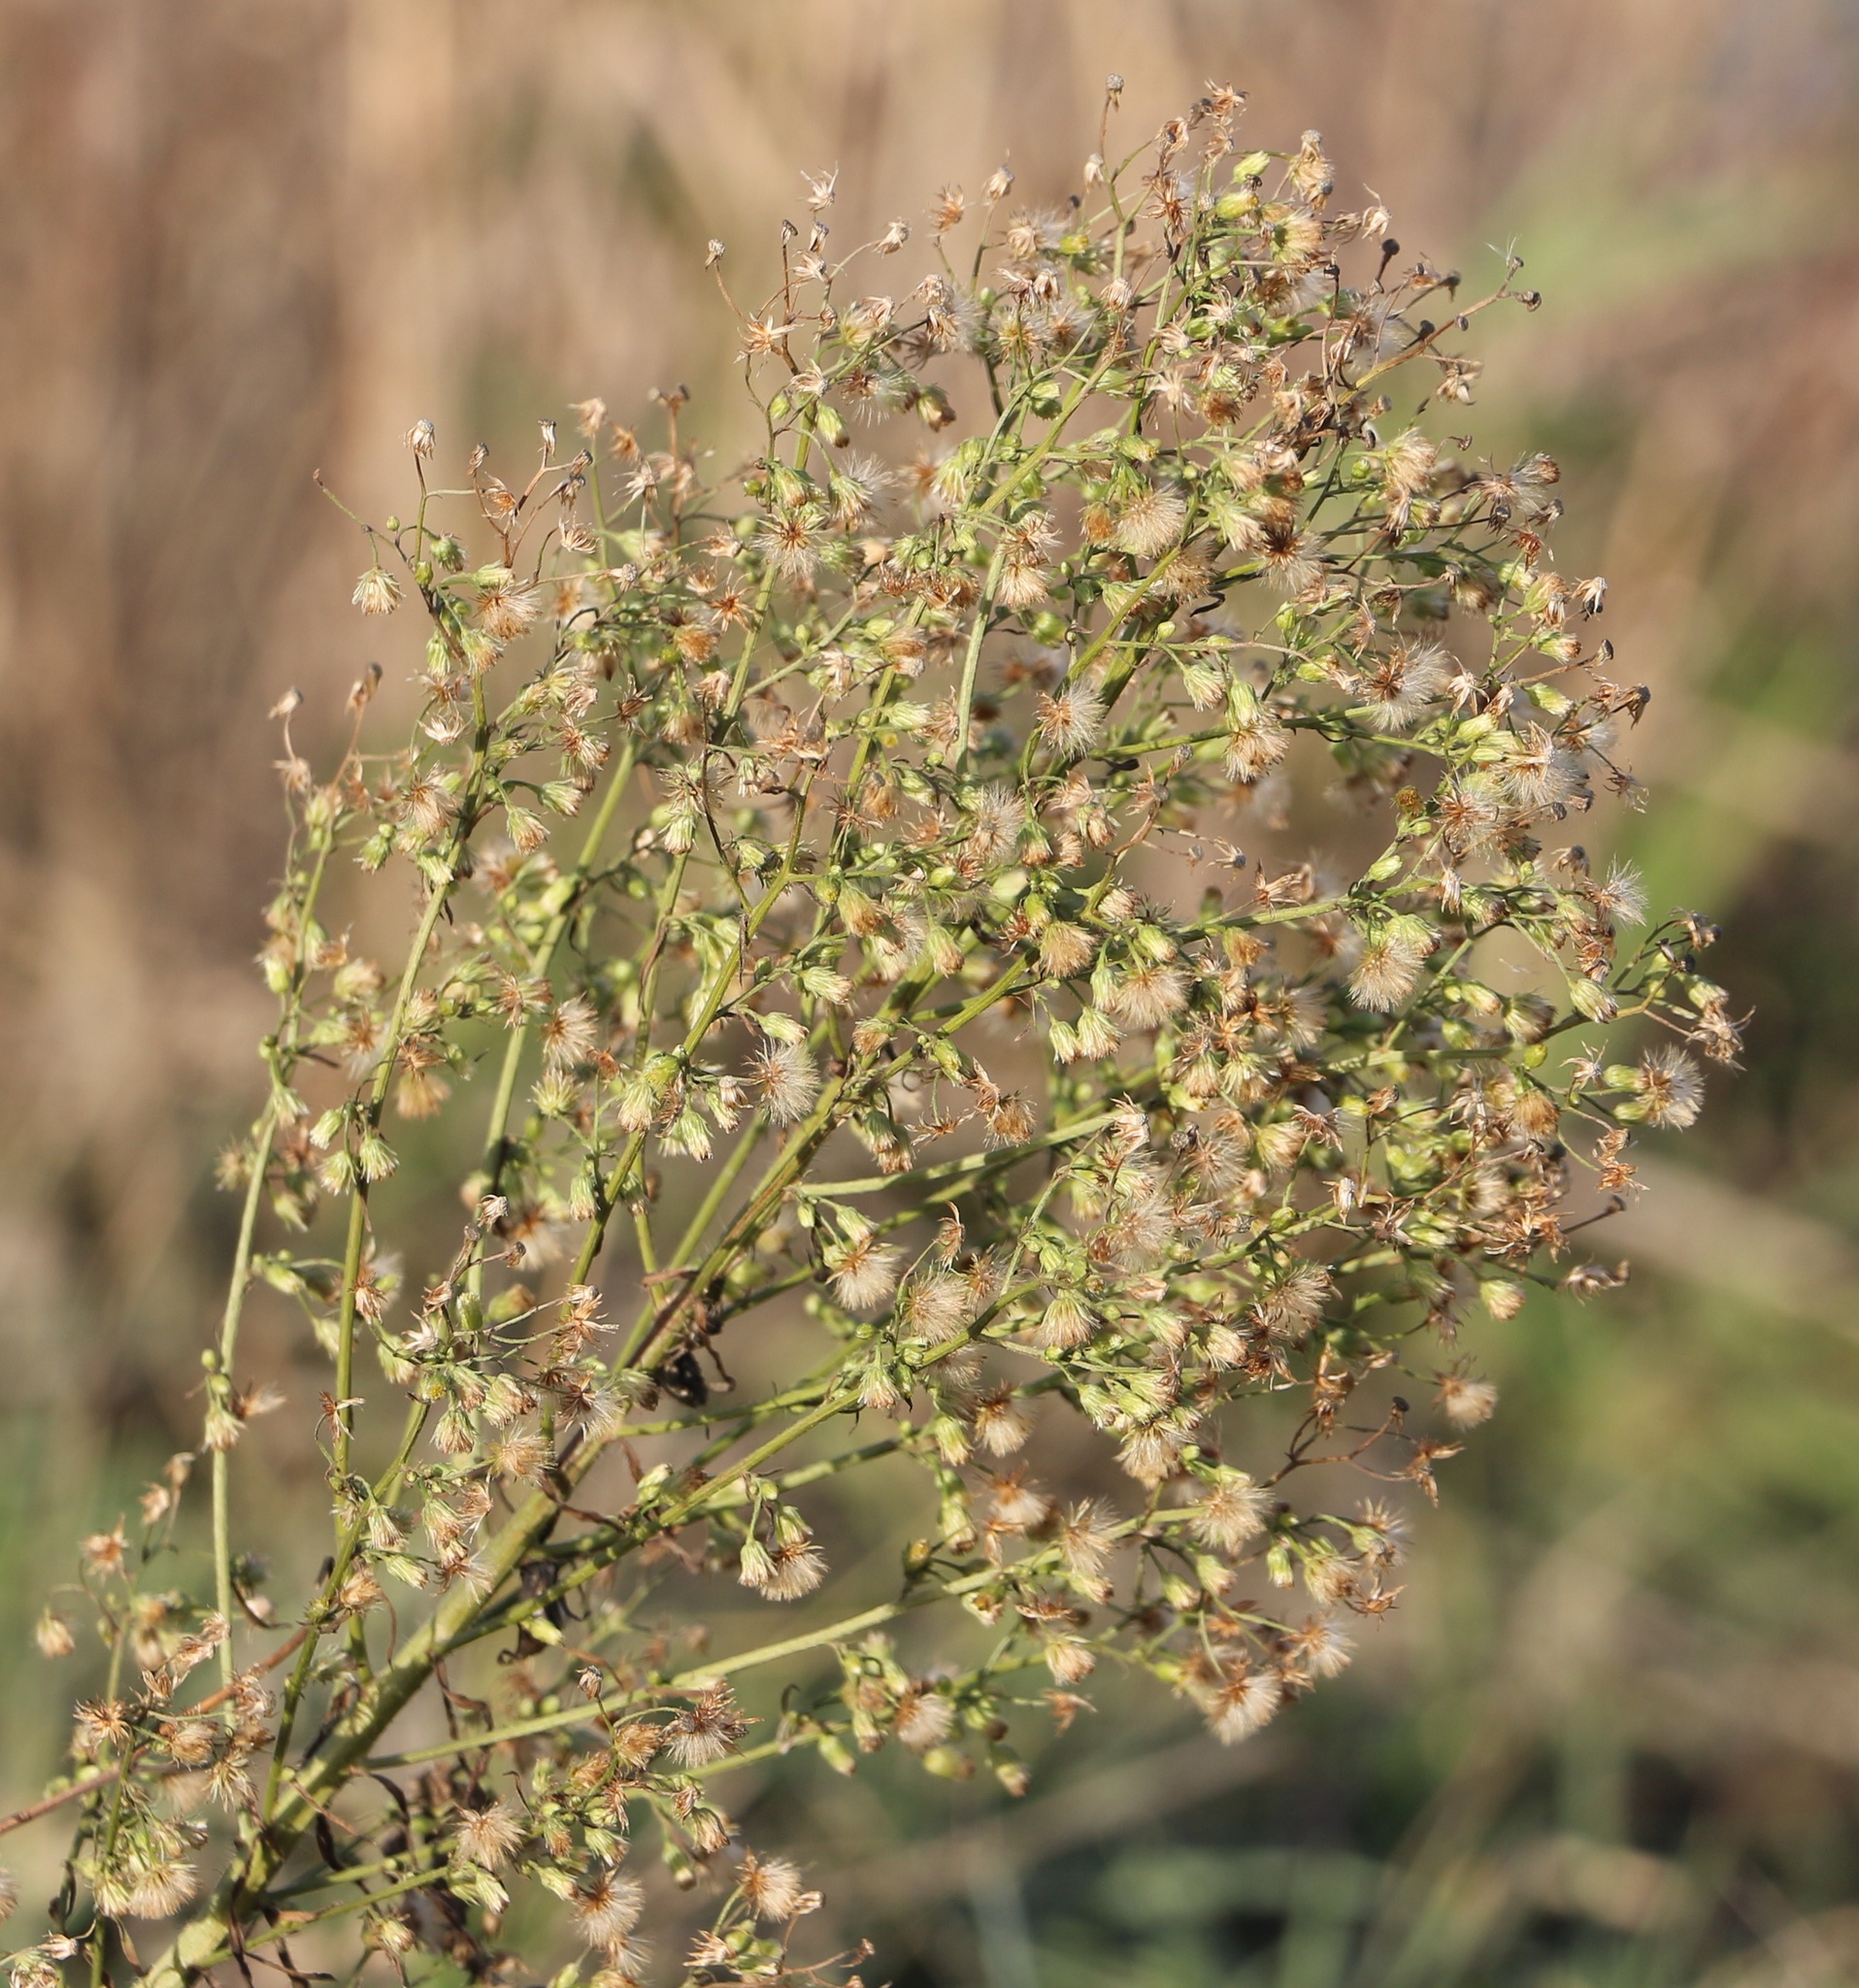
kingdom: Plantae
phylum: Tracheophyta
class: Magnoliopsida
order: Asterales
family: Asteraceae
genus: Erigeron
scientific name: Erigeron canadensis
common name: Canadian fleabane
